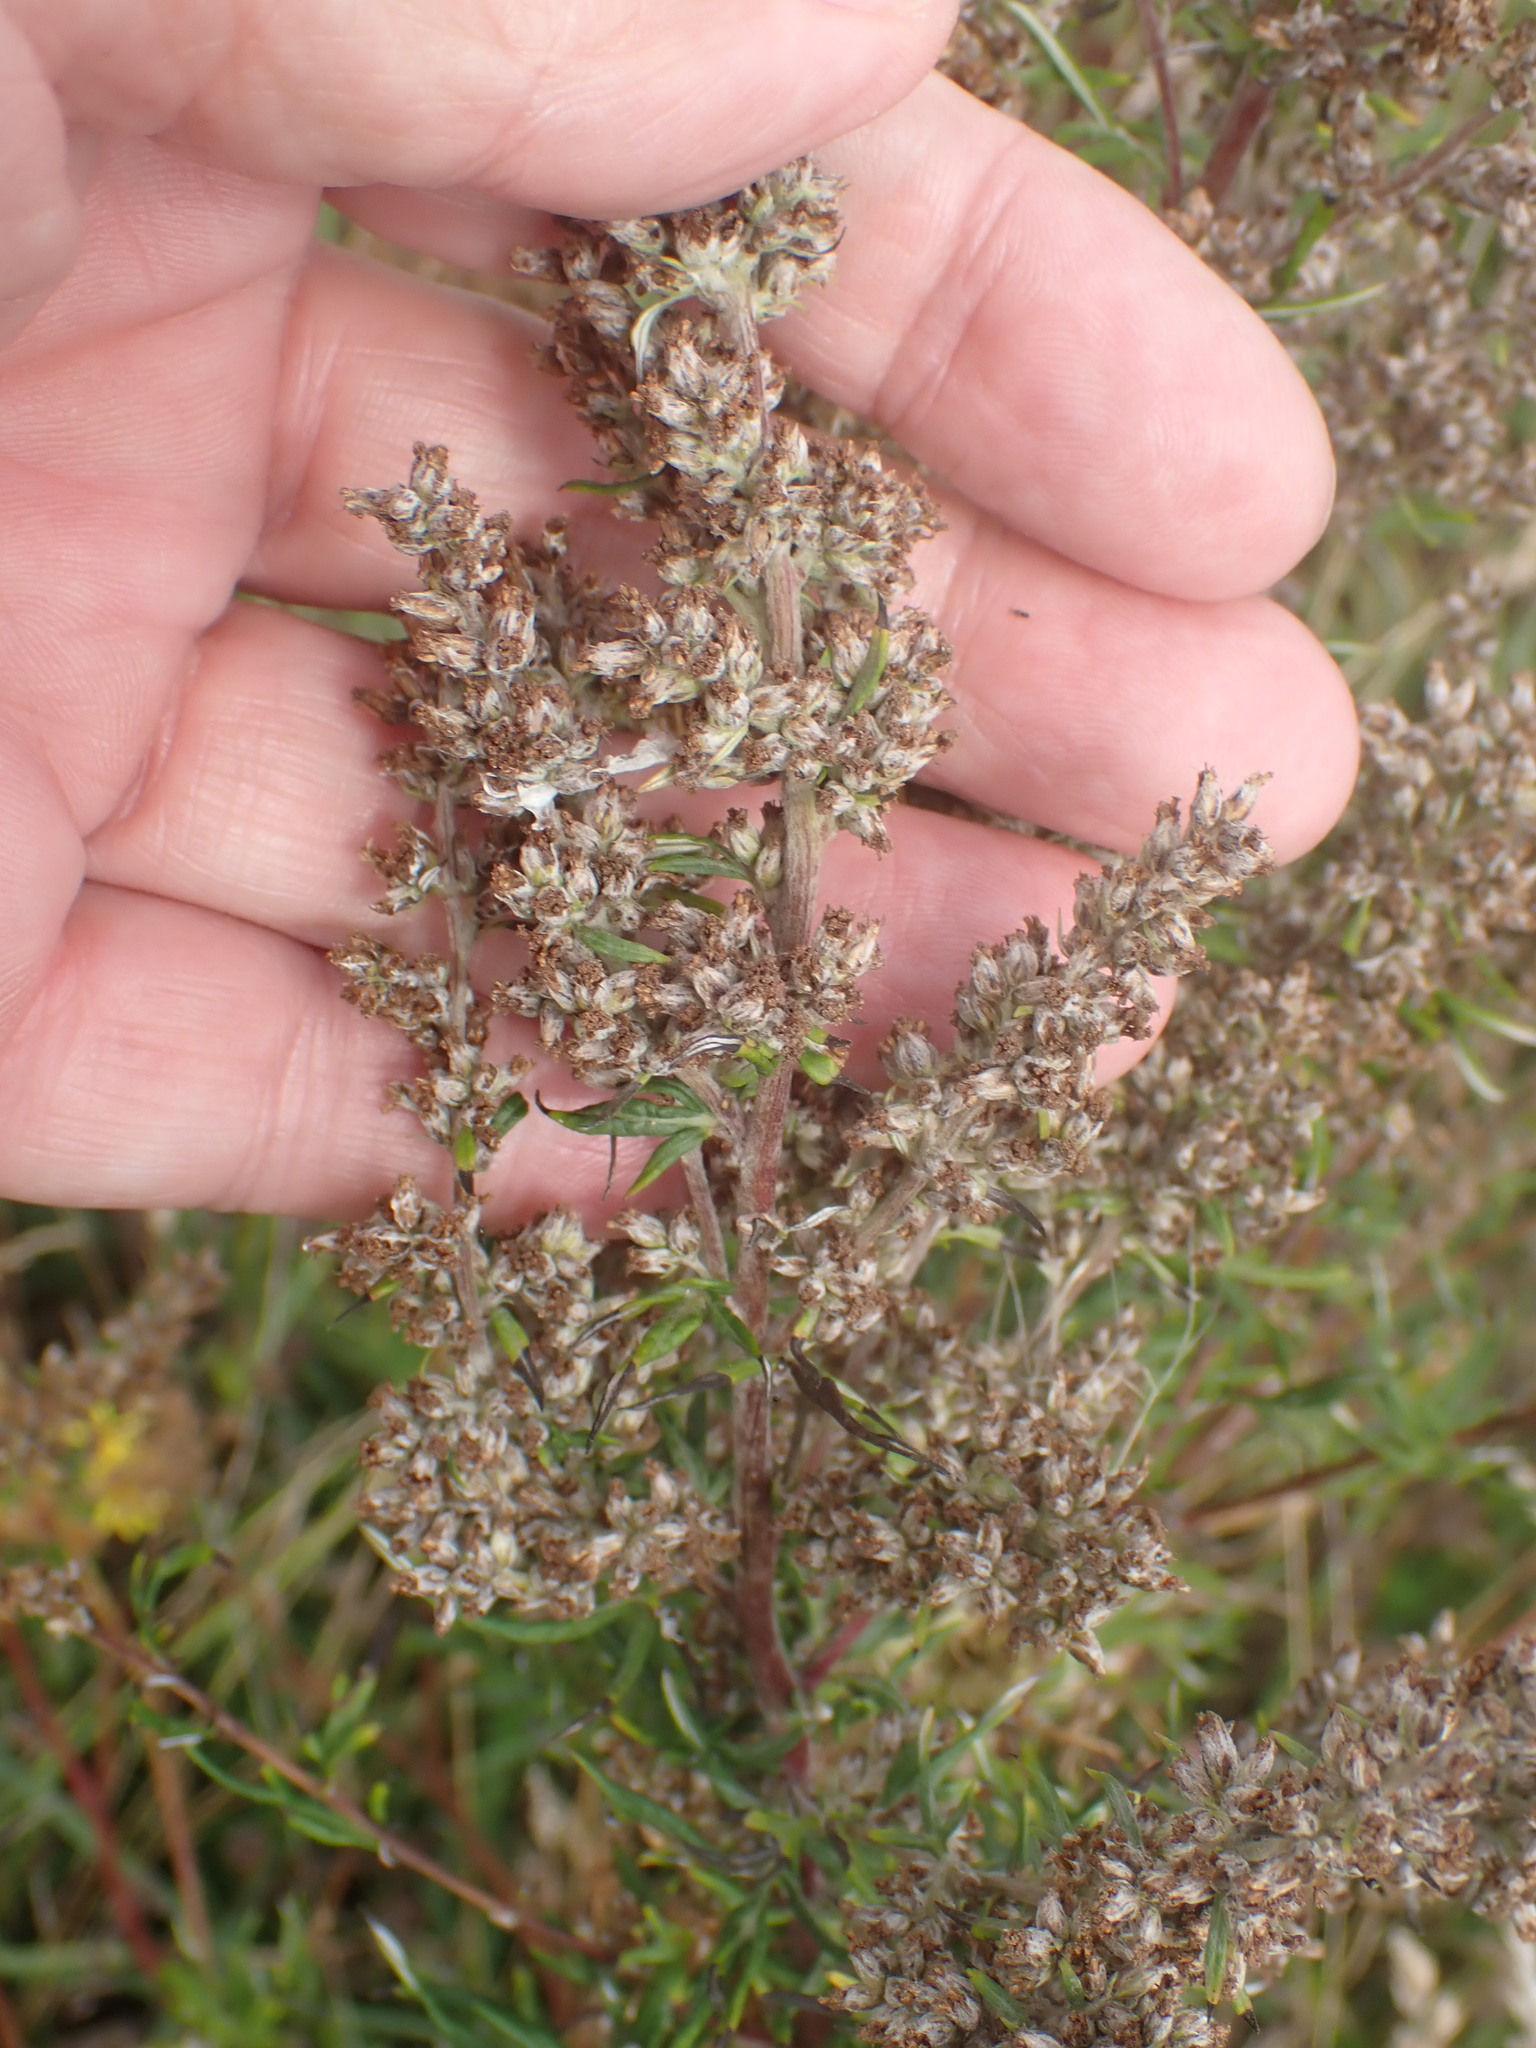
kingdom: Plantae
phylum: Tracheophyta
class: Magnoliopsida
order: Asterales
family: Asteraceae
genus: Artemisia
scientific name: Artemisia vulgaris
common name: Mugwort
